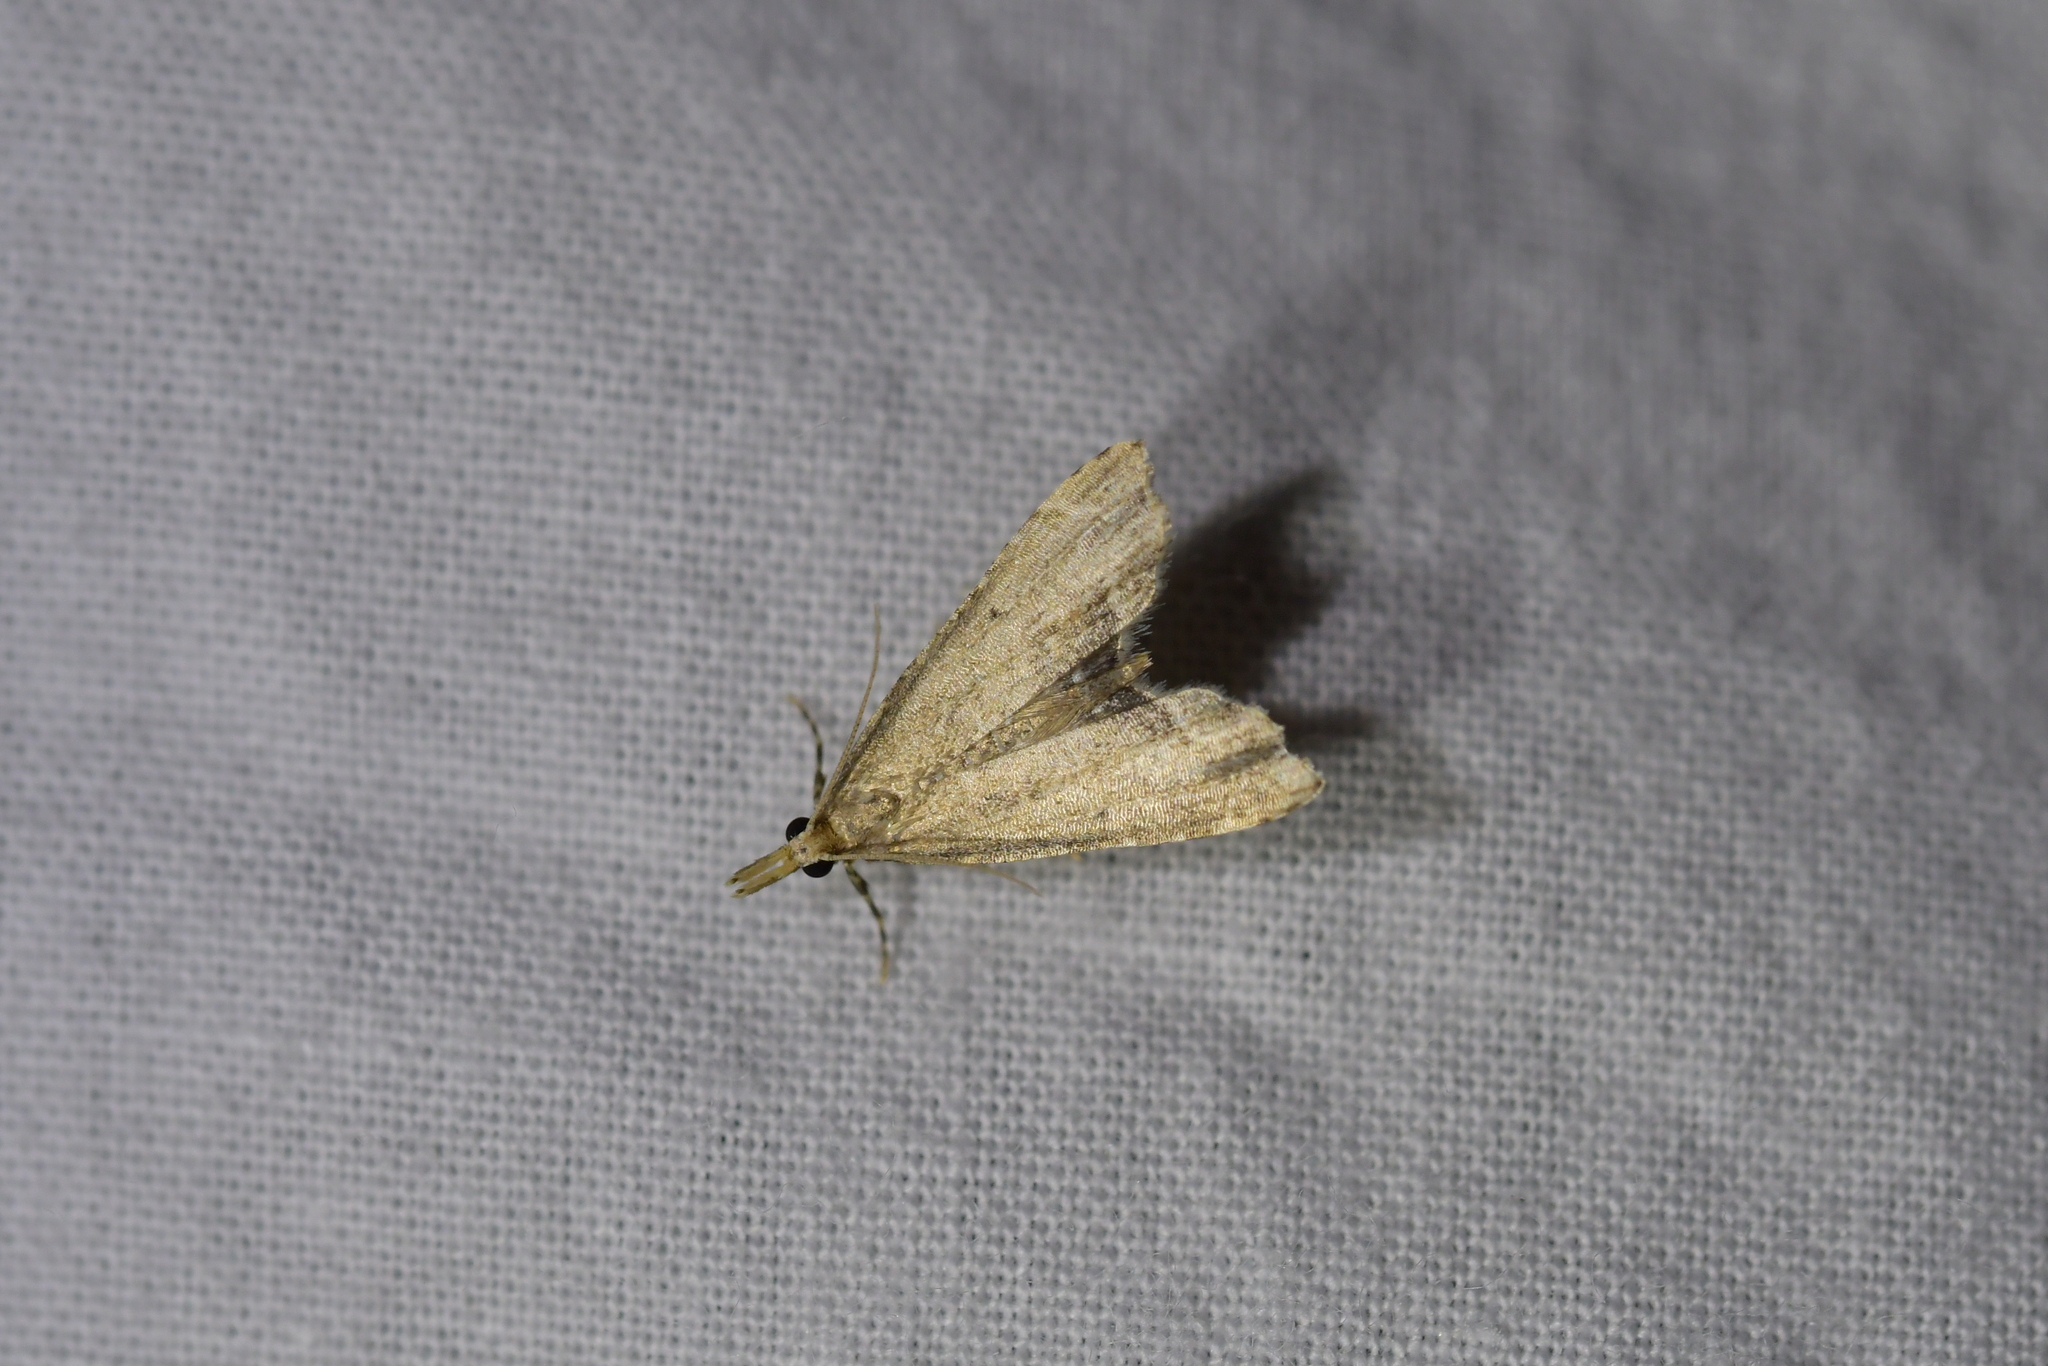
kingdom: Animalia
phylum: Arthropoda
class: Insecta
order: Lepidoptera
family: Crambidae
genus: Diplopseustis
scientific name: Diplopseustis perieresalis
